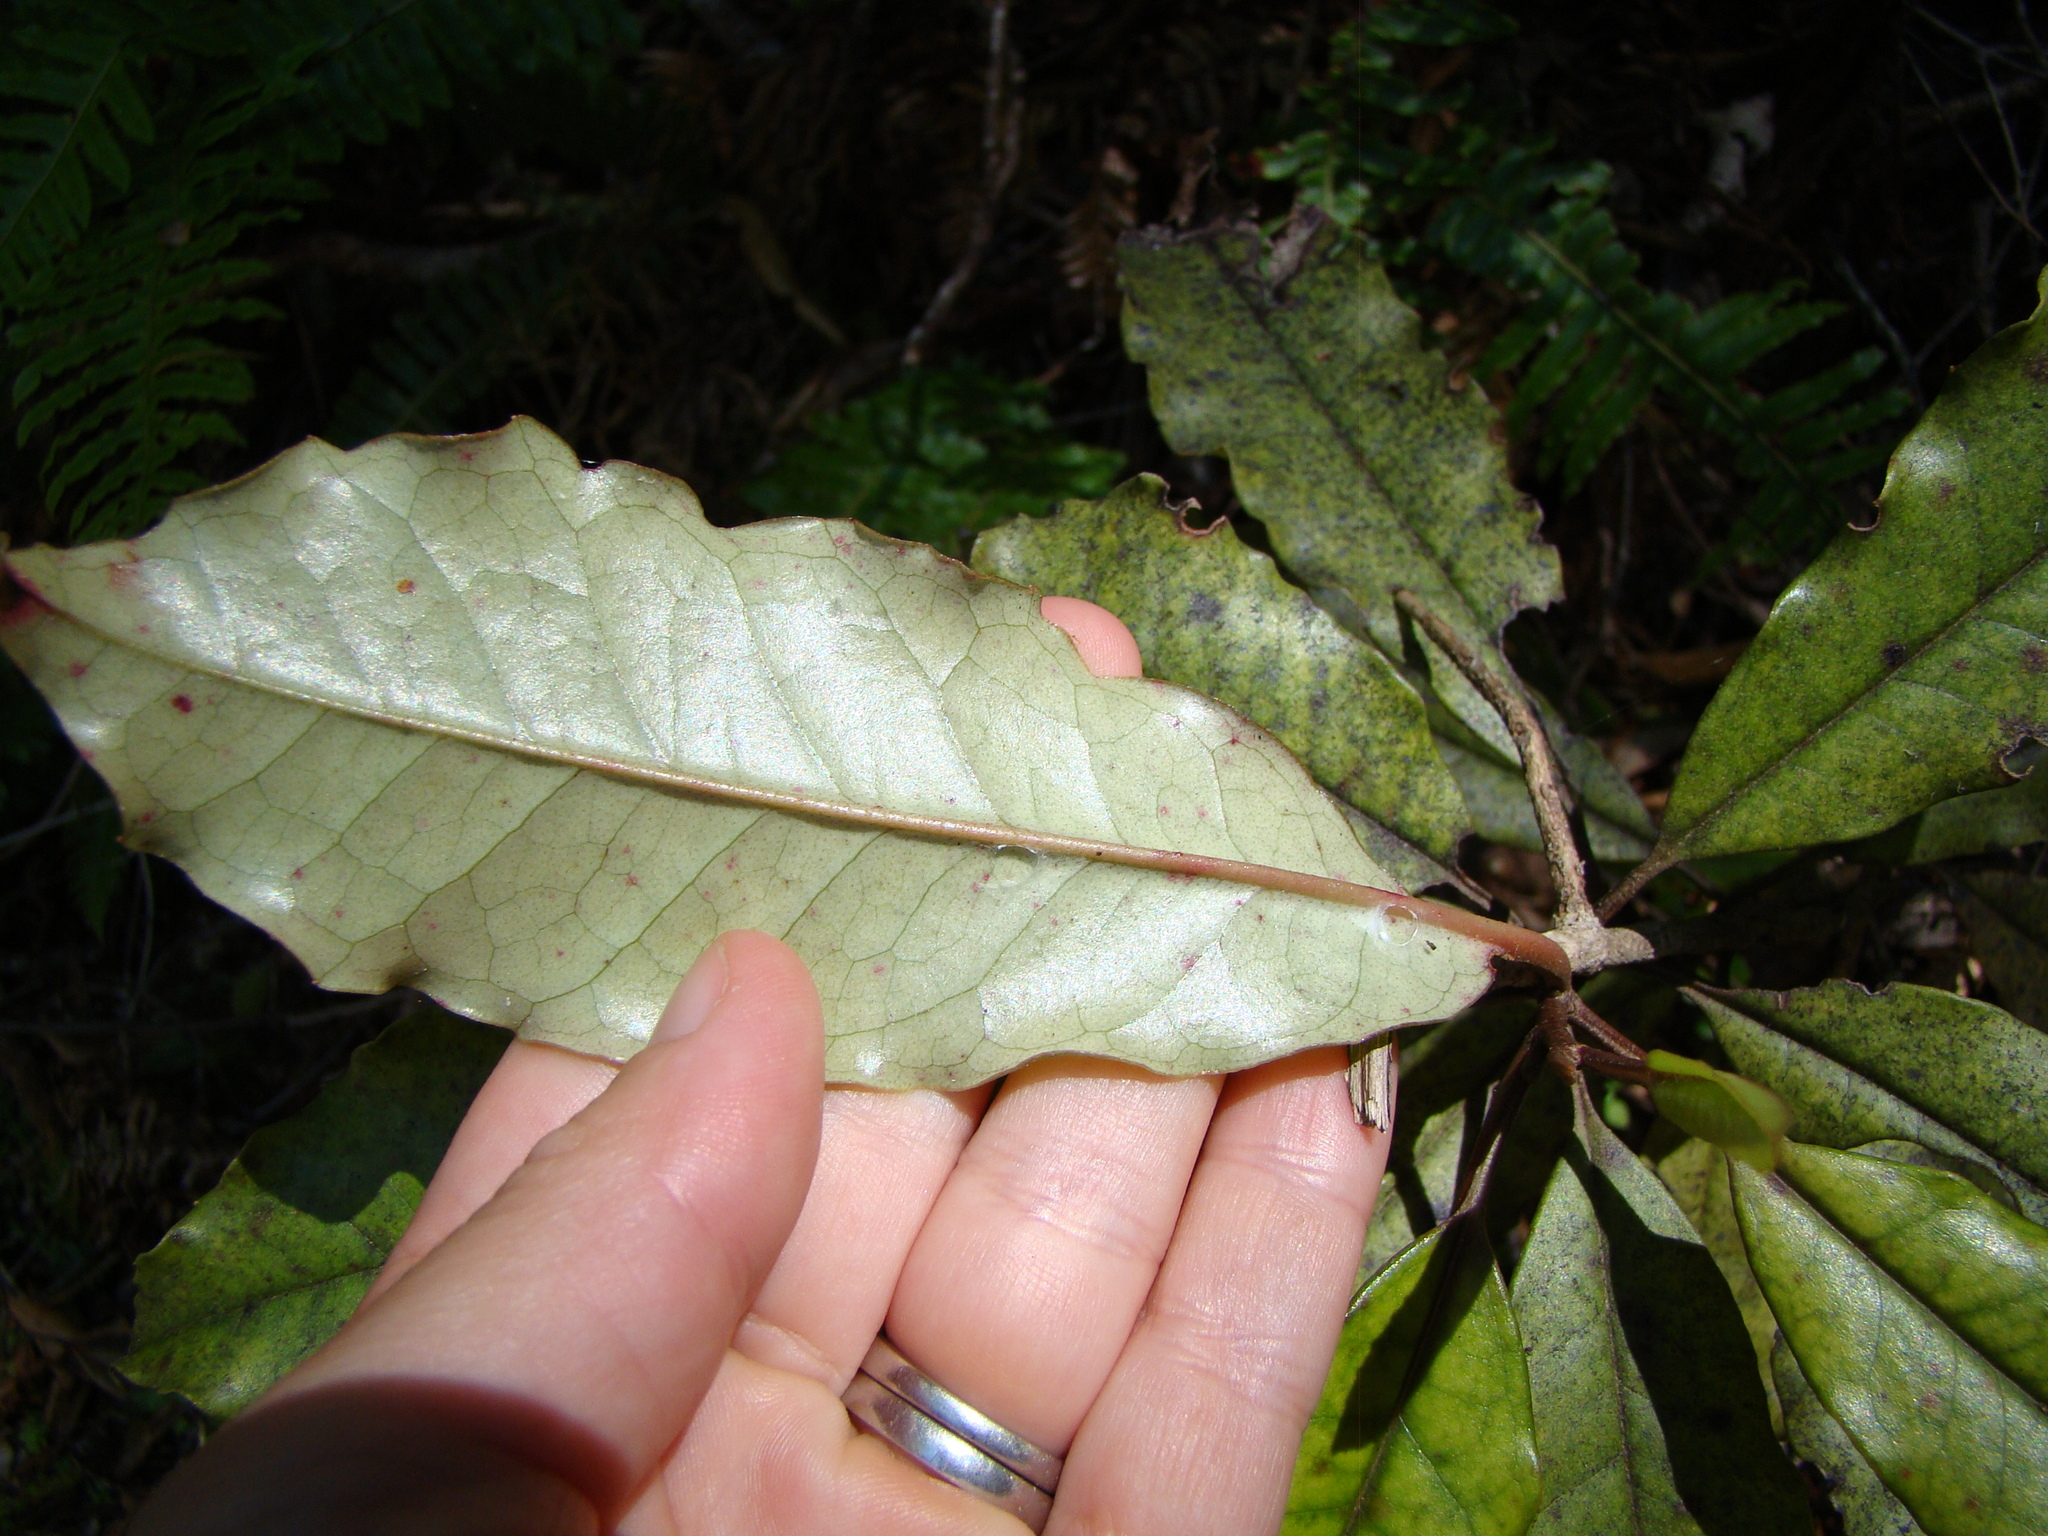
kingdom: Plantae
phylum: Tracheophyta
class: Magnoliopsida
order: Paracryphiales
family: Paracryphiaceae
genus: Quintinia
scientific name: Quintinia serrata
